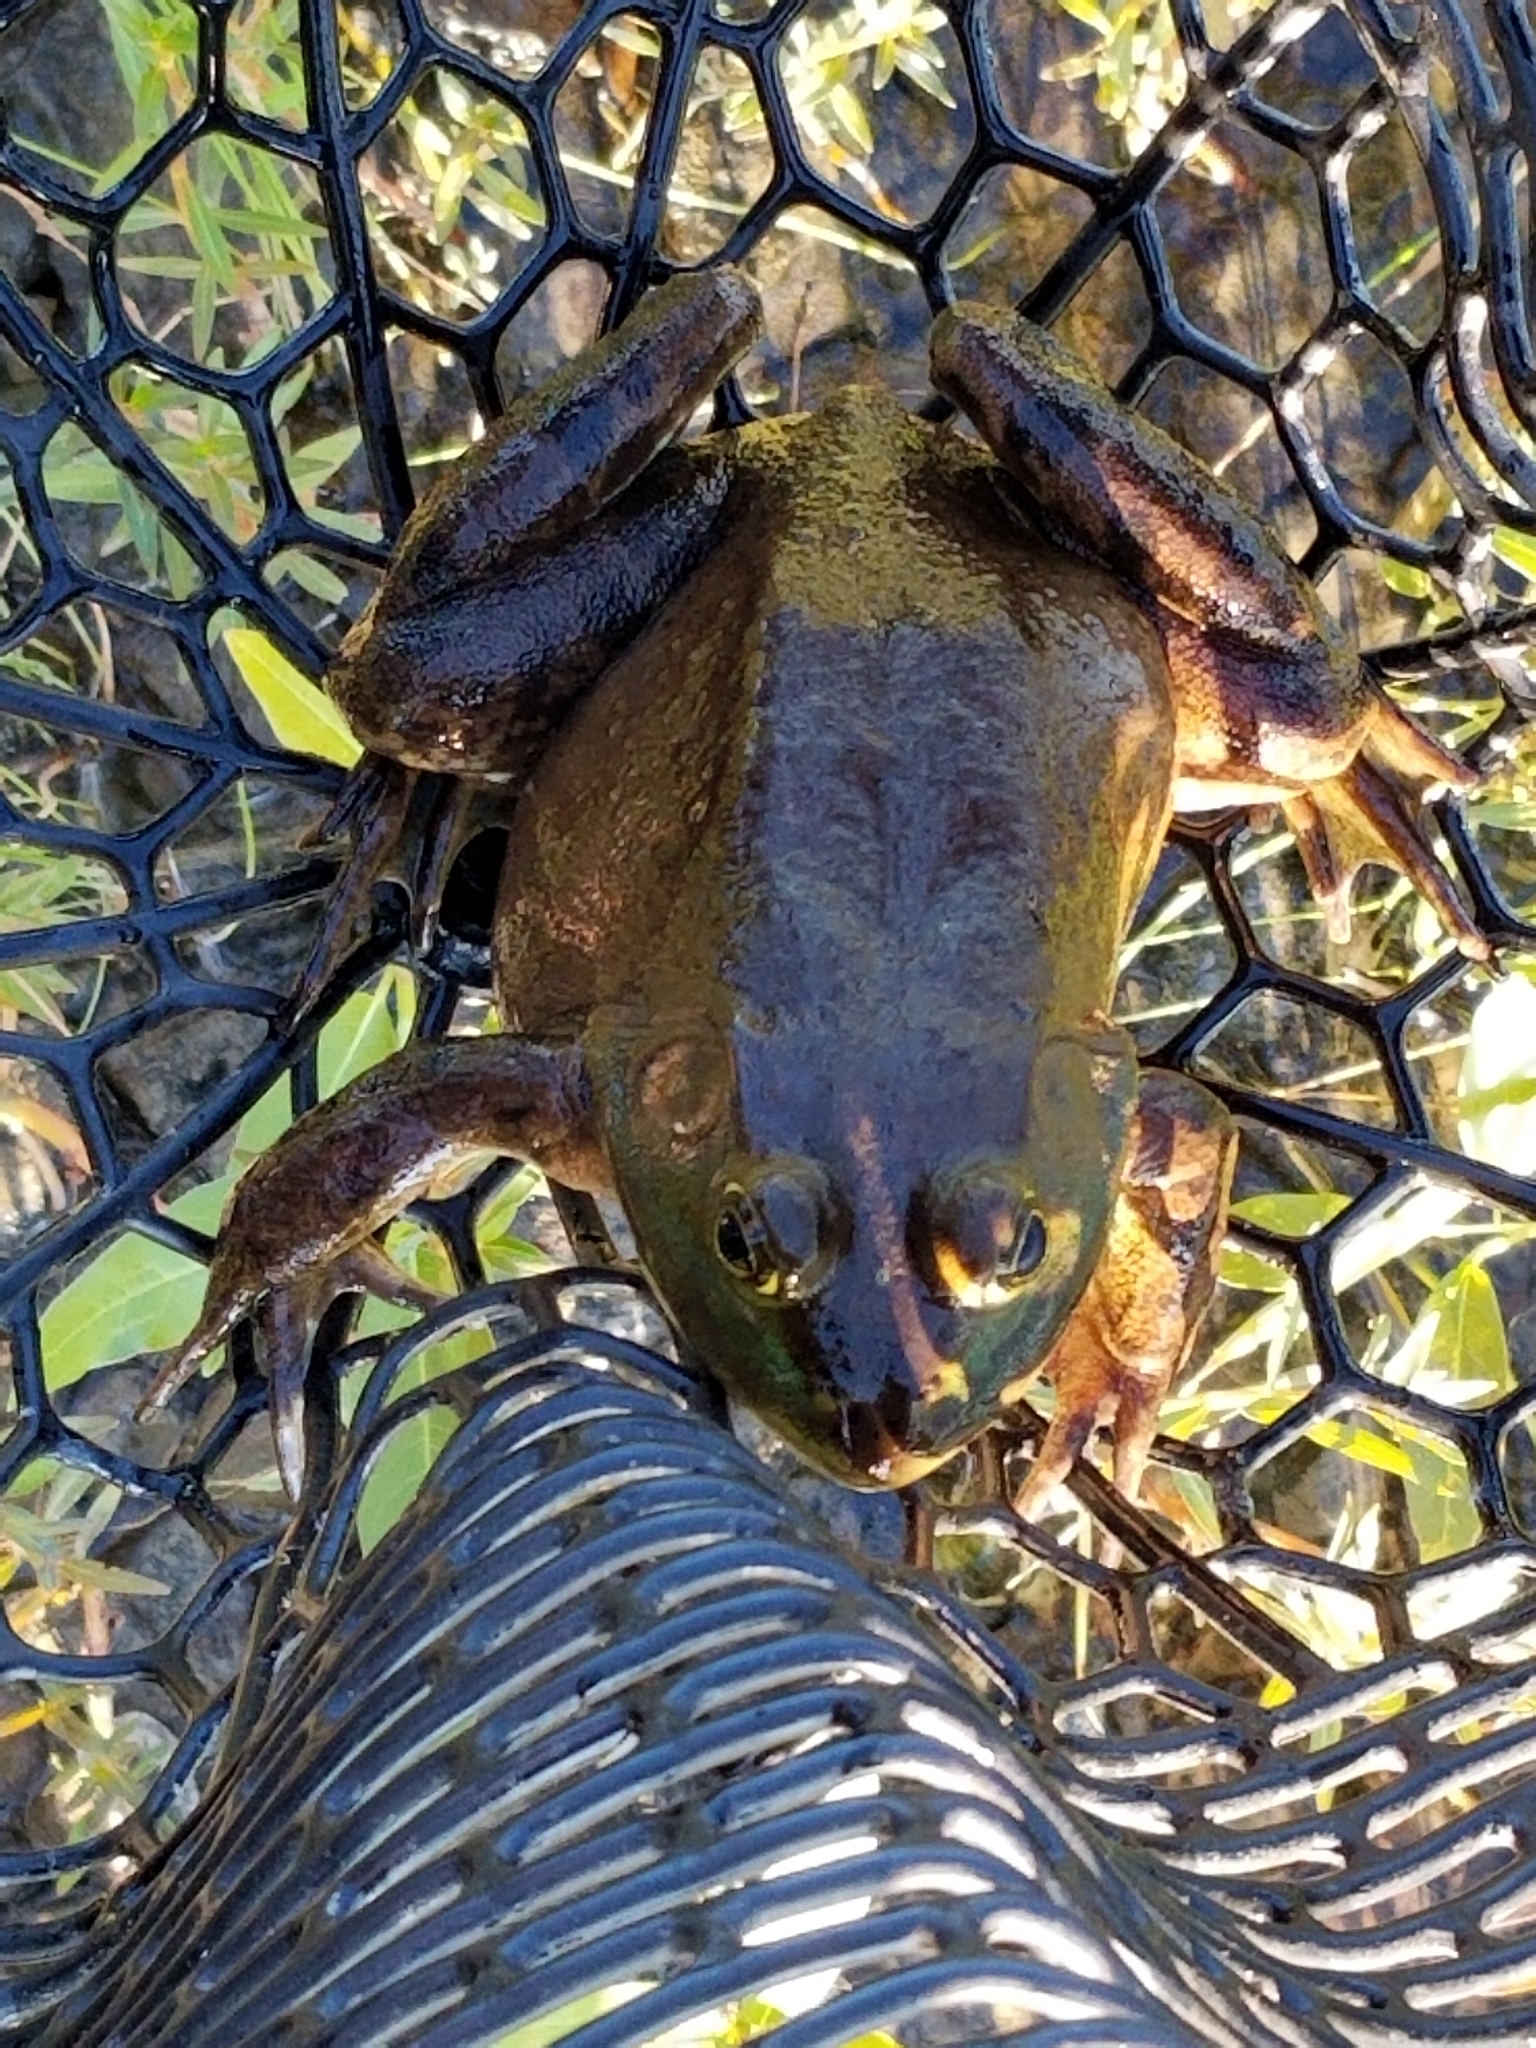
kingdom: Animalia
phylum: Chordata
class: Amphibia
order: Anura
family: Ranidae
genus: Lithobates
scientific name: Lithobates catesbeianus
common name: American bullfrog
